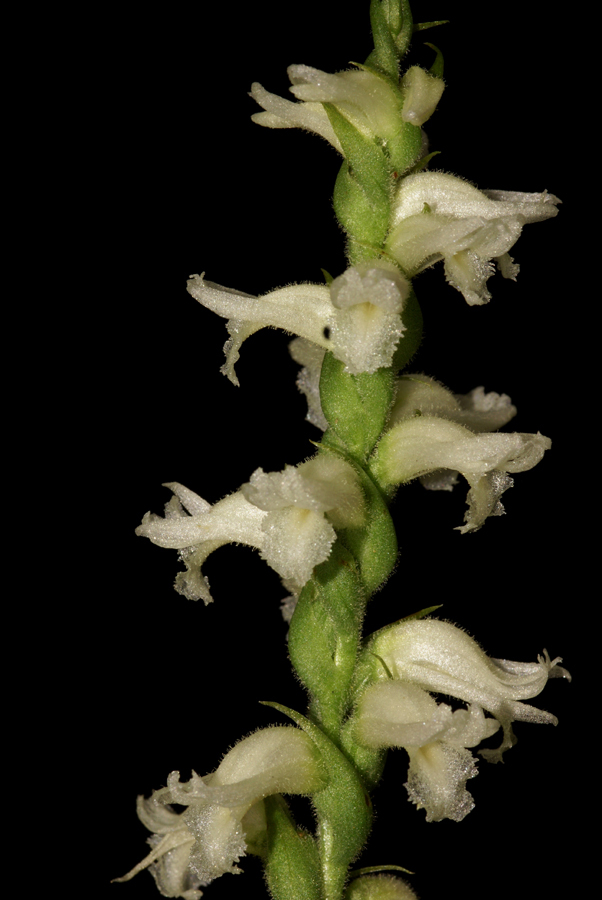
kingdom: Plantae
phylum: Tracheophyta
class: Liliopsida
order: Asparagales
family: Orchidaceae
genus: Spiranthes
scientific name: Spiranthes ochroleuca
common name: Yellow ladies'-tresses
